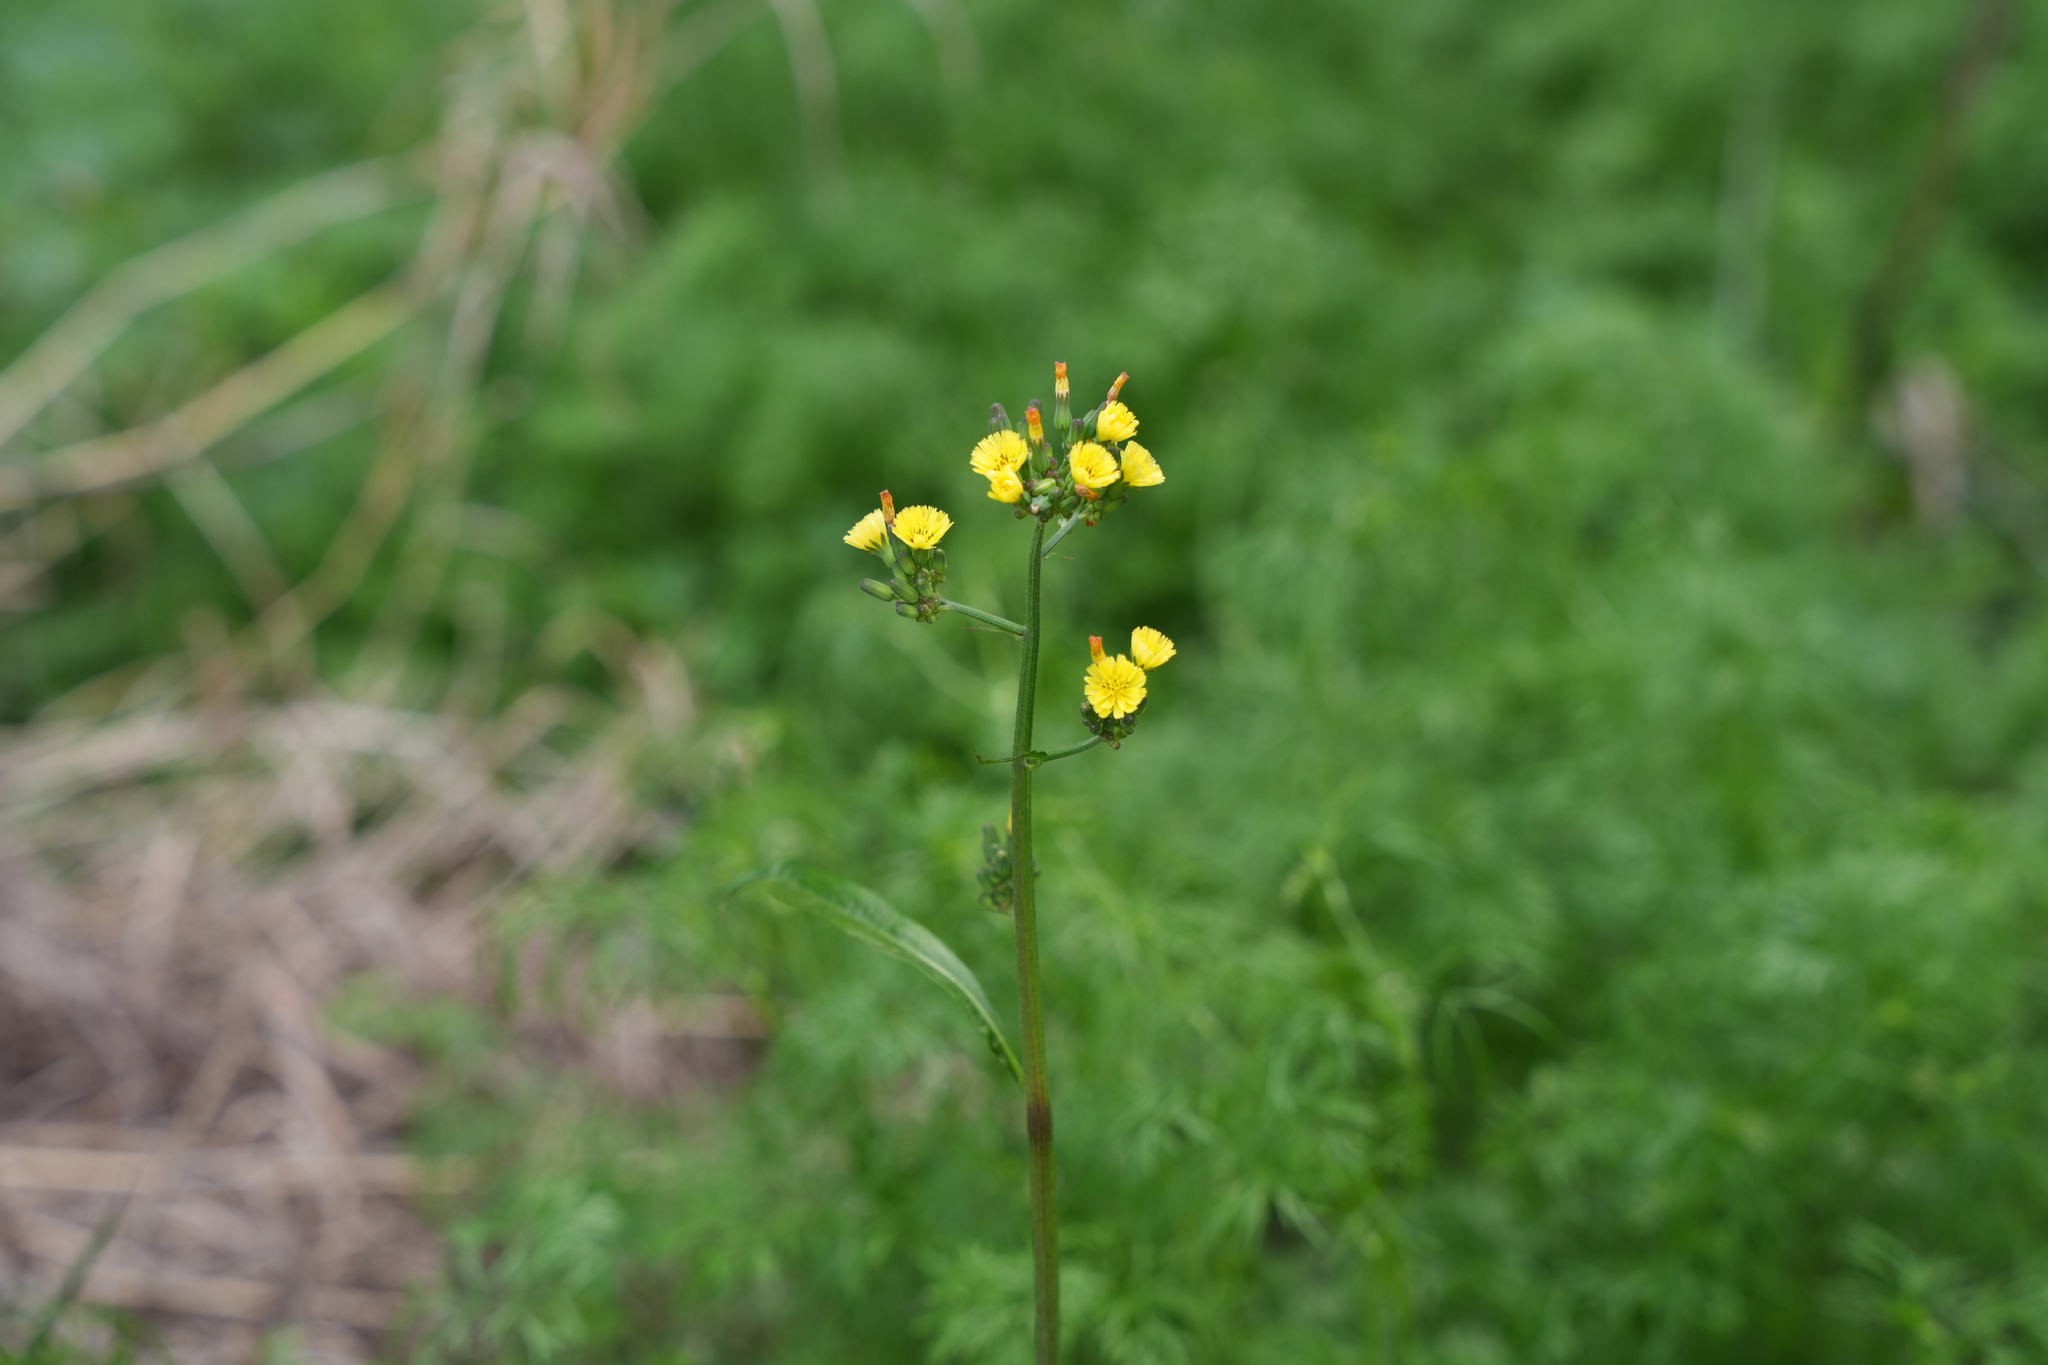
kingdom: Plantae
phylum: Tracheophyta
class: Magnoliopsida
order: Asterales
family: Asteraceae
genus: Youngia
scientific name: Youngia japonica
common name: Oriental false hawksbeard
